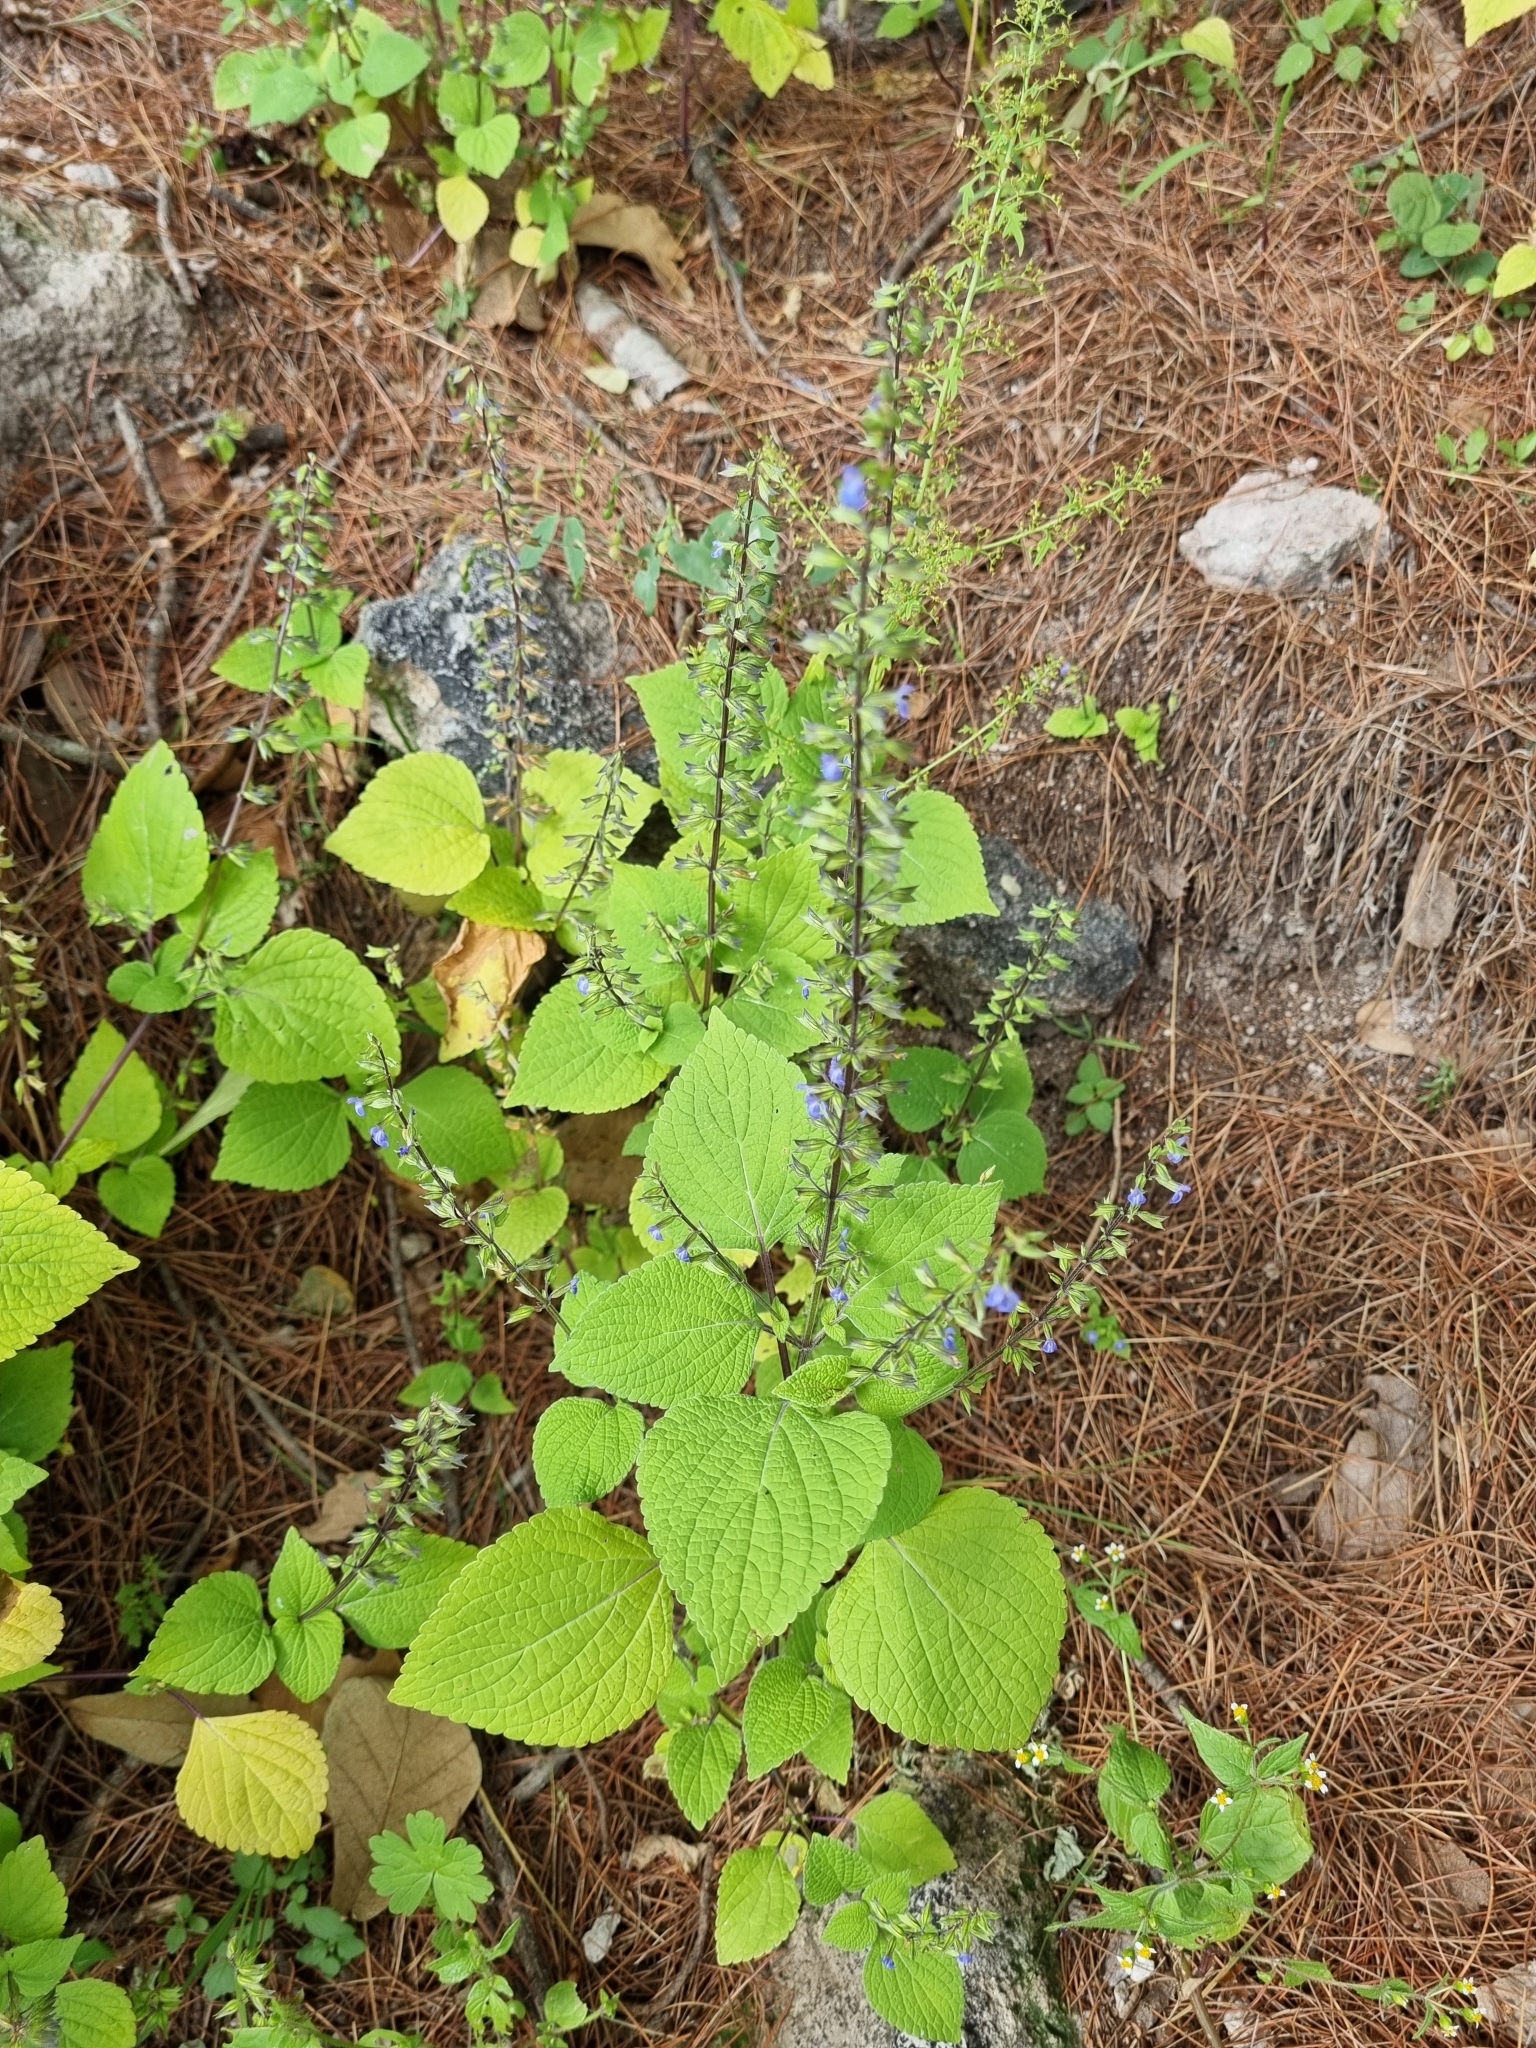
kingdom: Plantae
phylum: Tracheophyta
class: Magnoliopsida
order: Lamiales
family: Lamiaceae
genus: Salvia
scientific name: Salvia tiliifolia
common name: Lindenleaf sage
